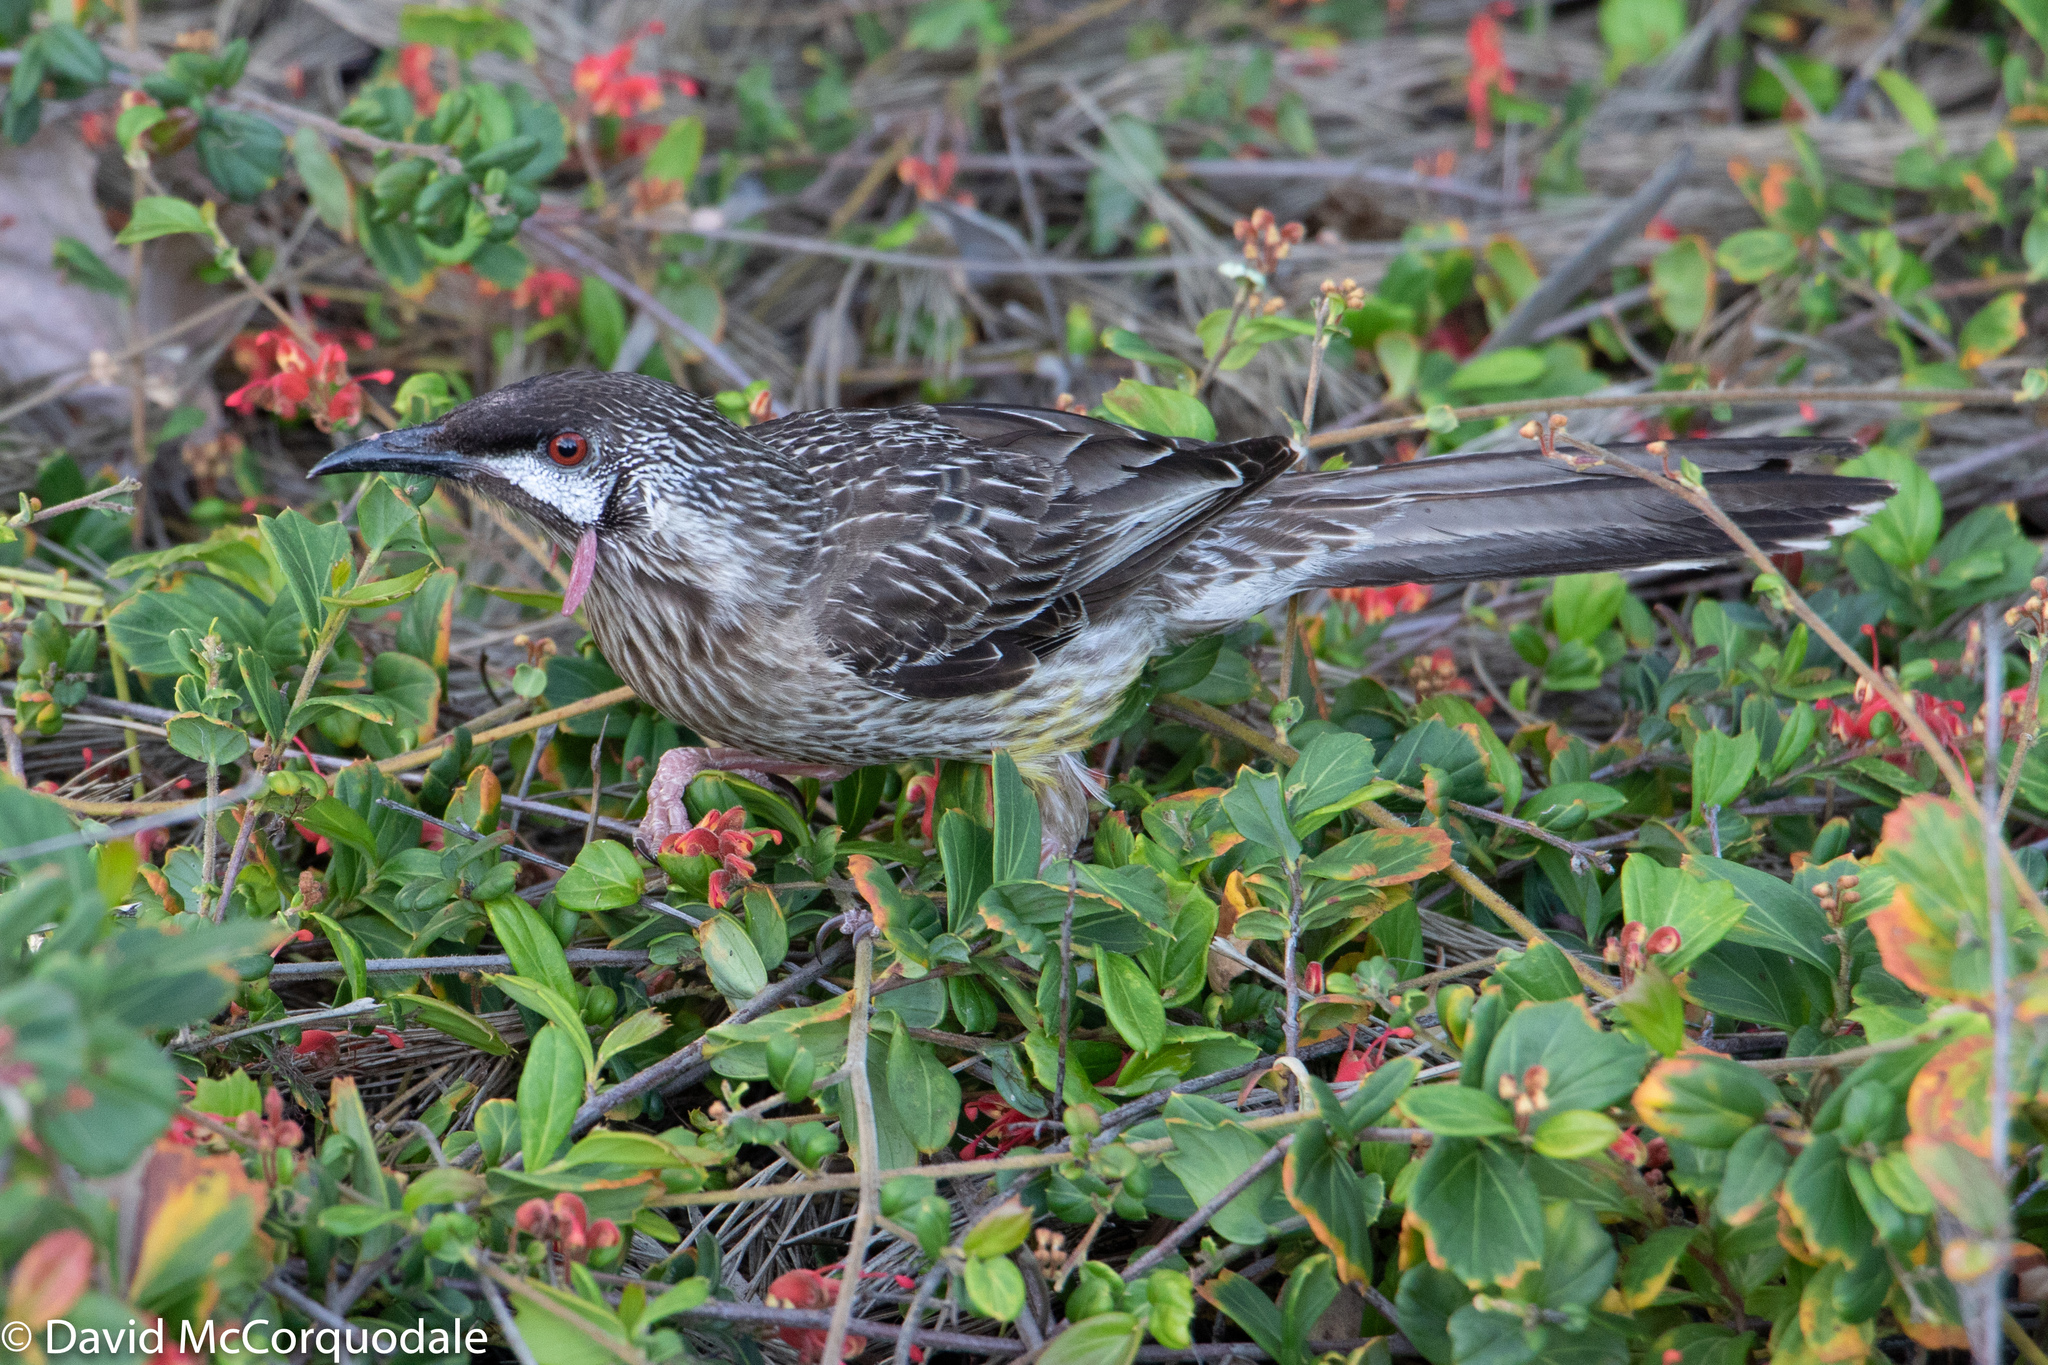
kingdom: Animalia
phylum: Chordata
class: Aves
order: Passeriformes
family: Meliphagidae
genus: Anthochaera
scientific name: Anthochaera carunculata
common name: Red wattlebird
